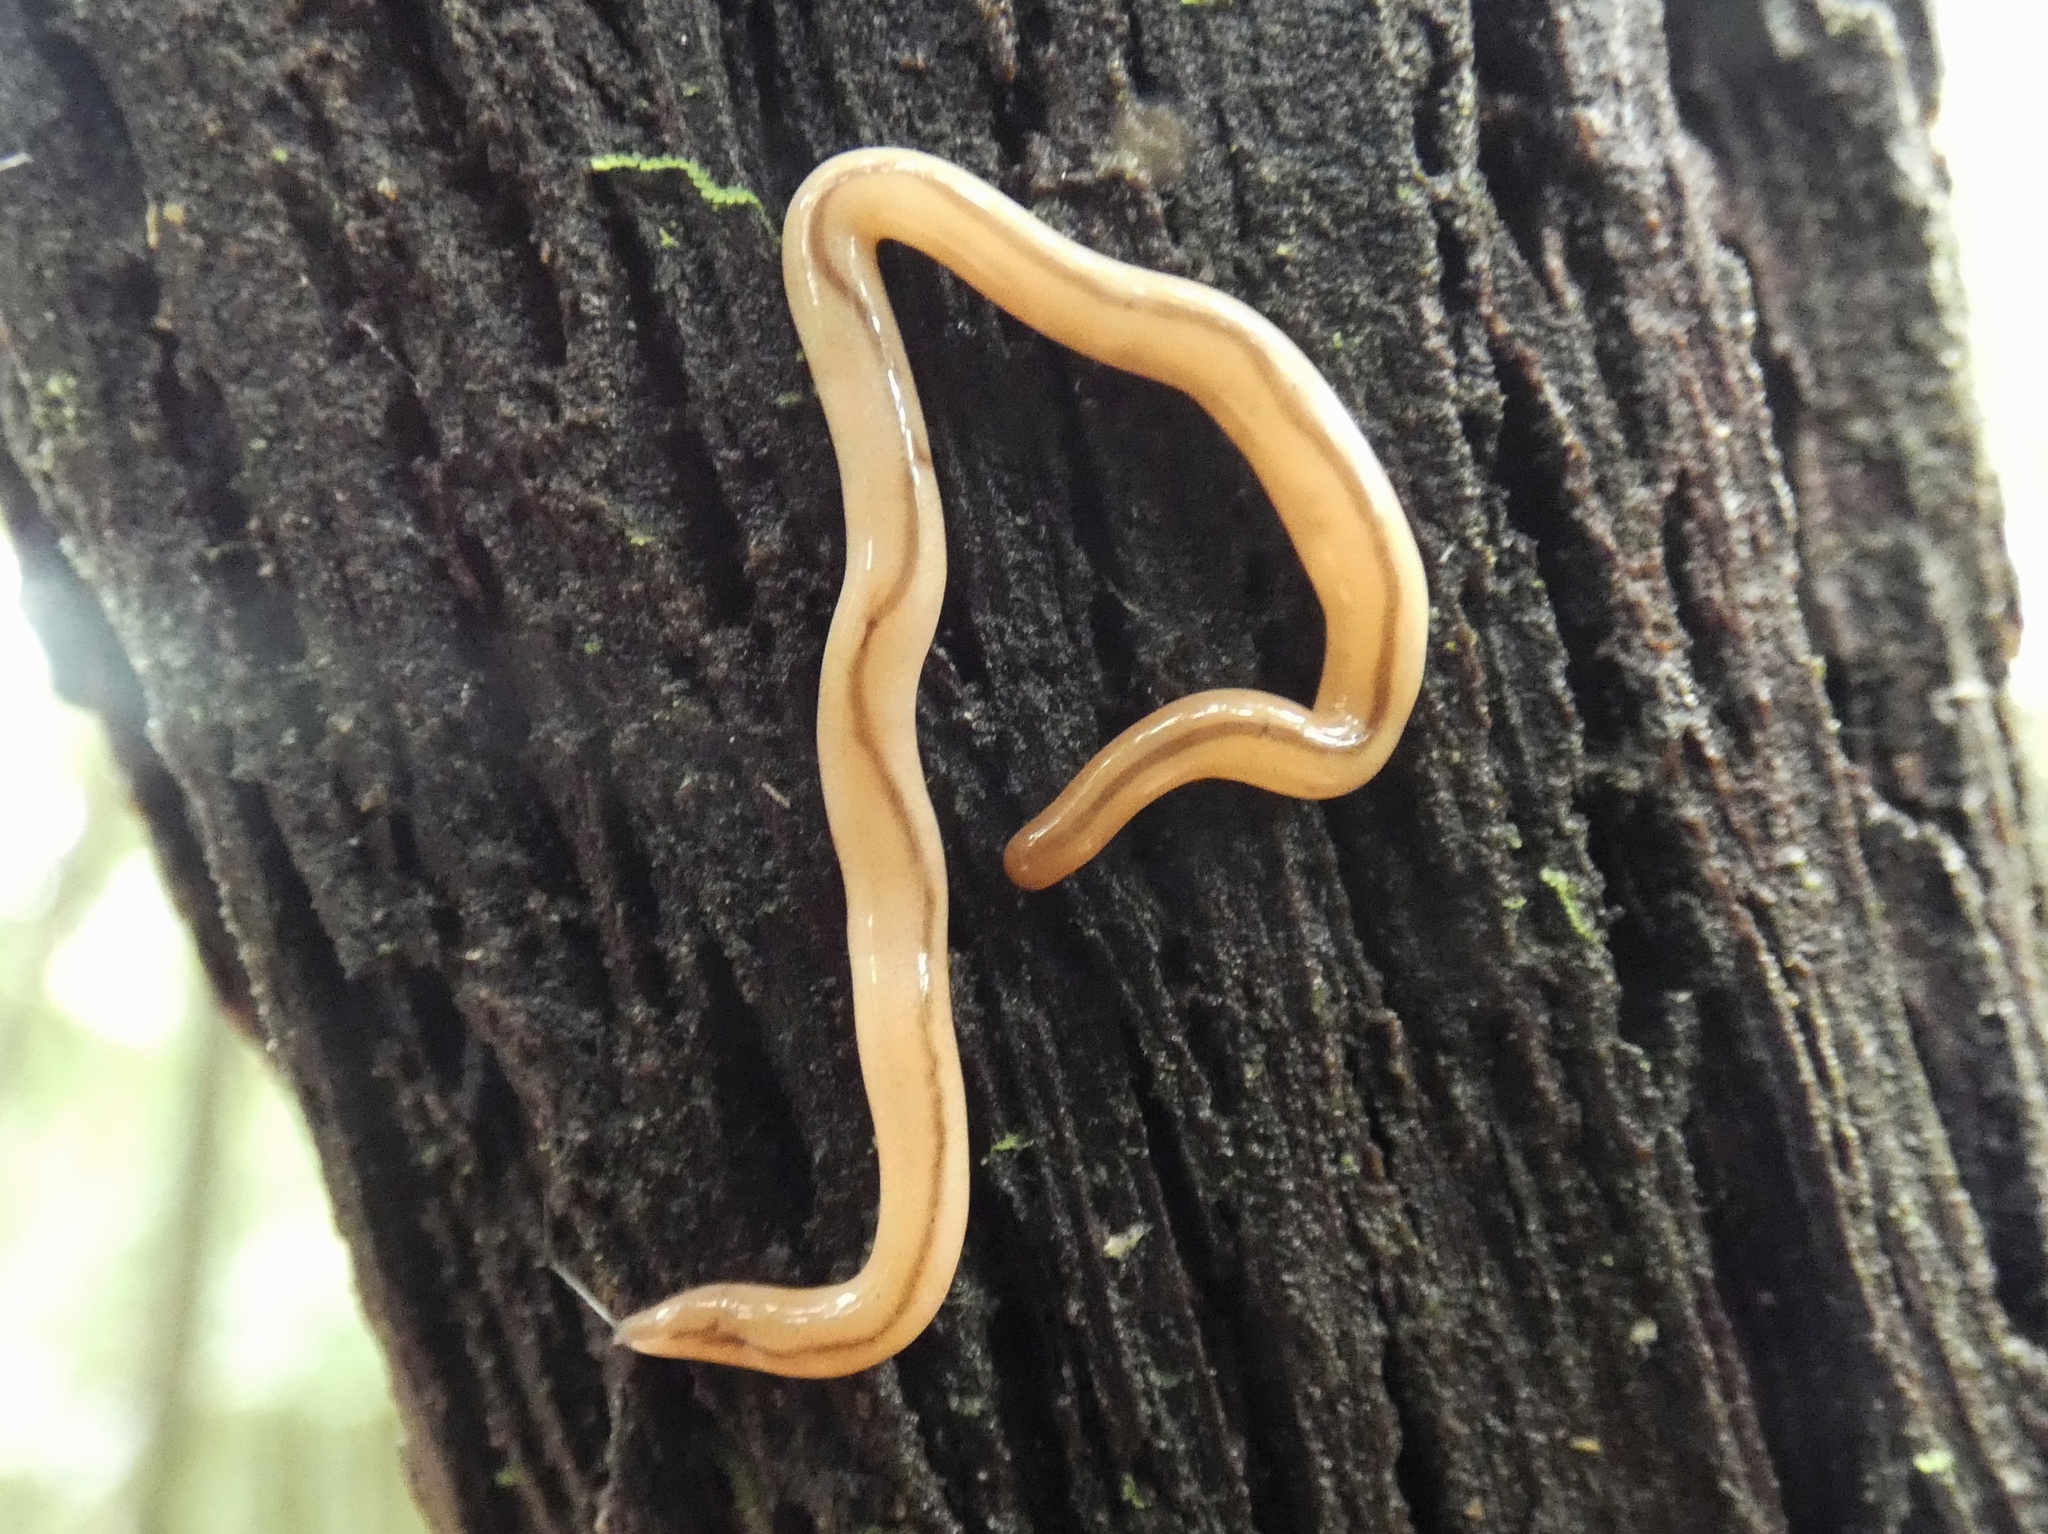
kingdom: Animalia
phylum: Nemertea
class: Hoplonemertea
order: Monostilifera
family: Prosorhochmidae
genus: Geonemertes
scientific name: Geonemertes pelaensis
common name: Land nemertean
